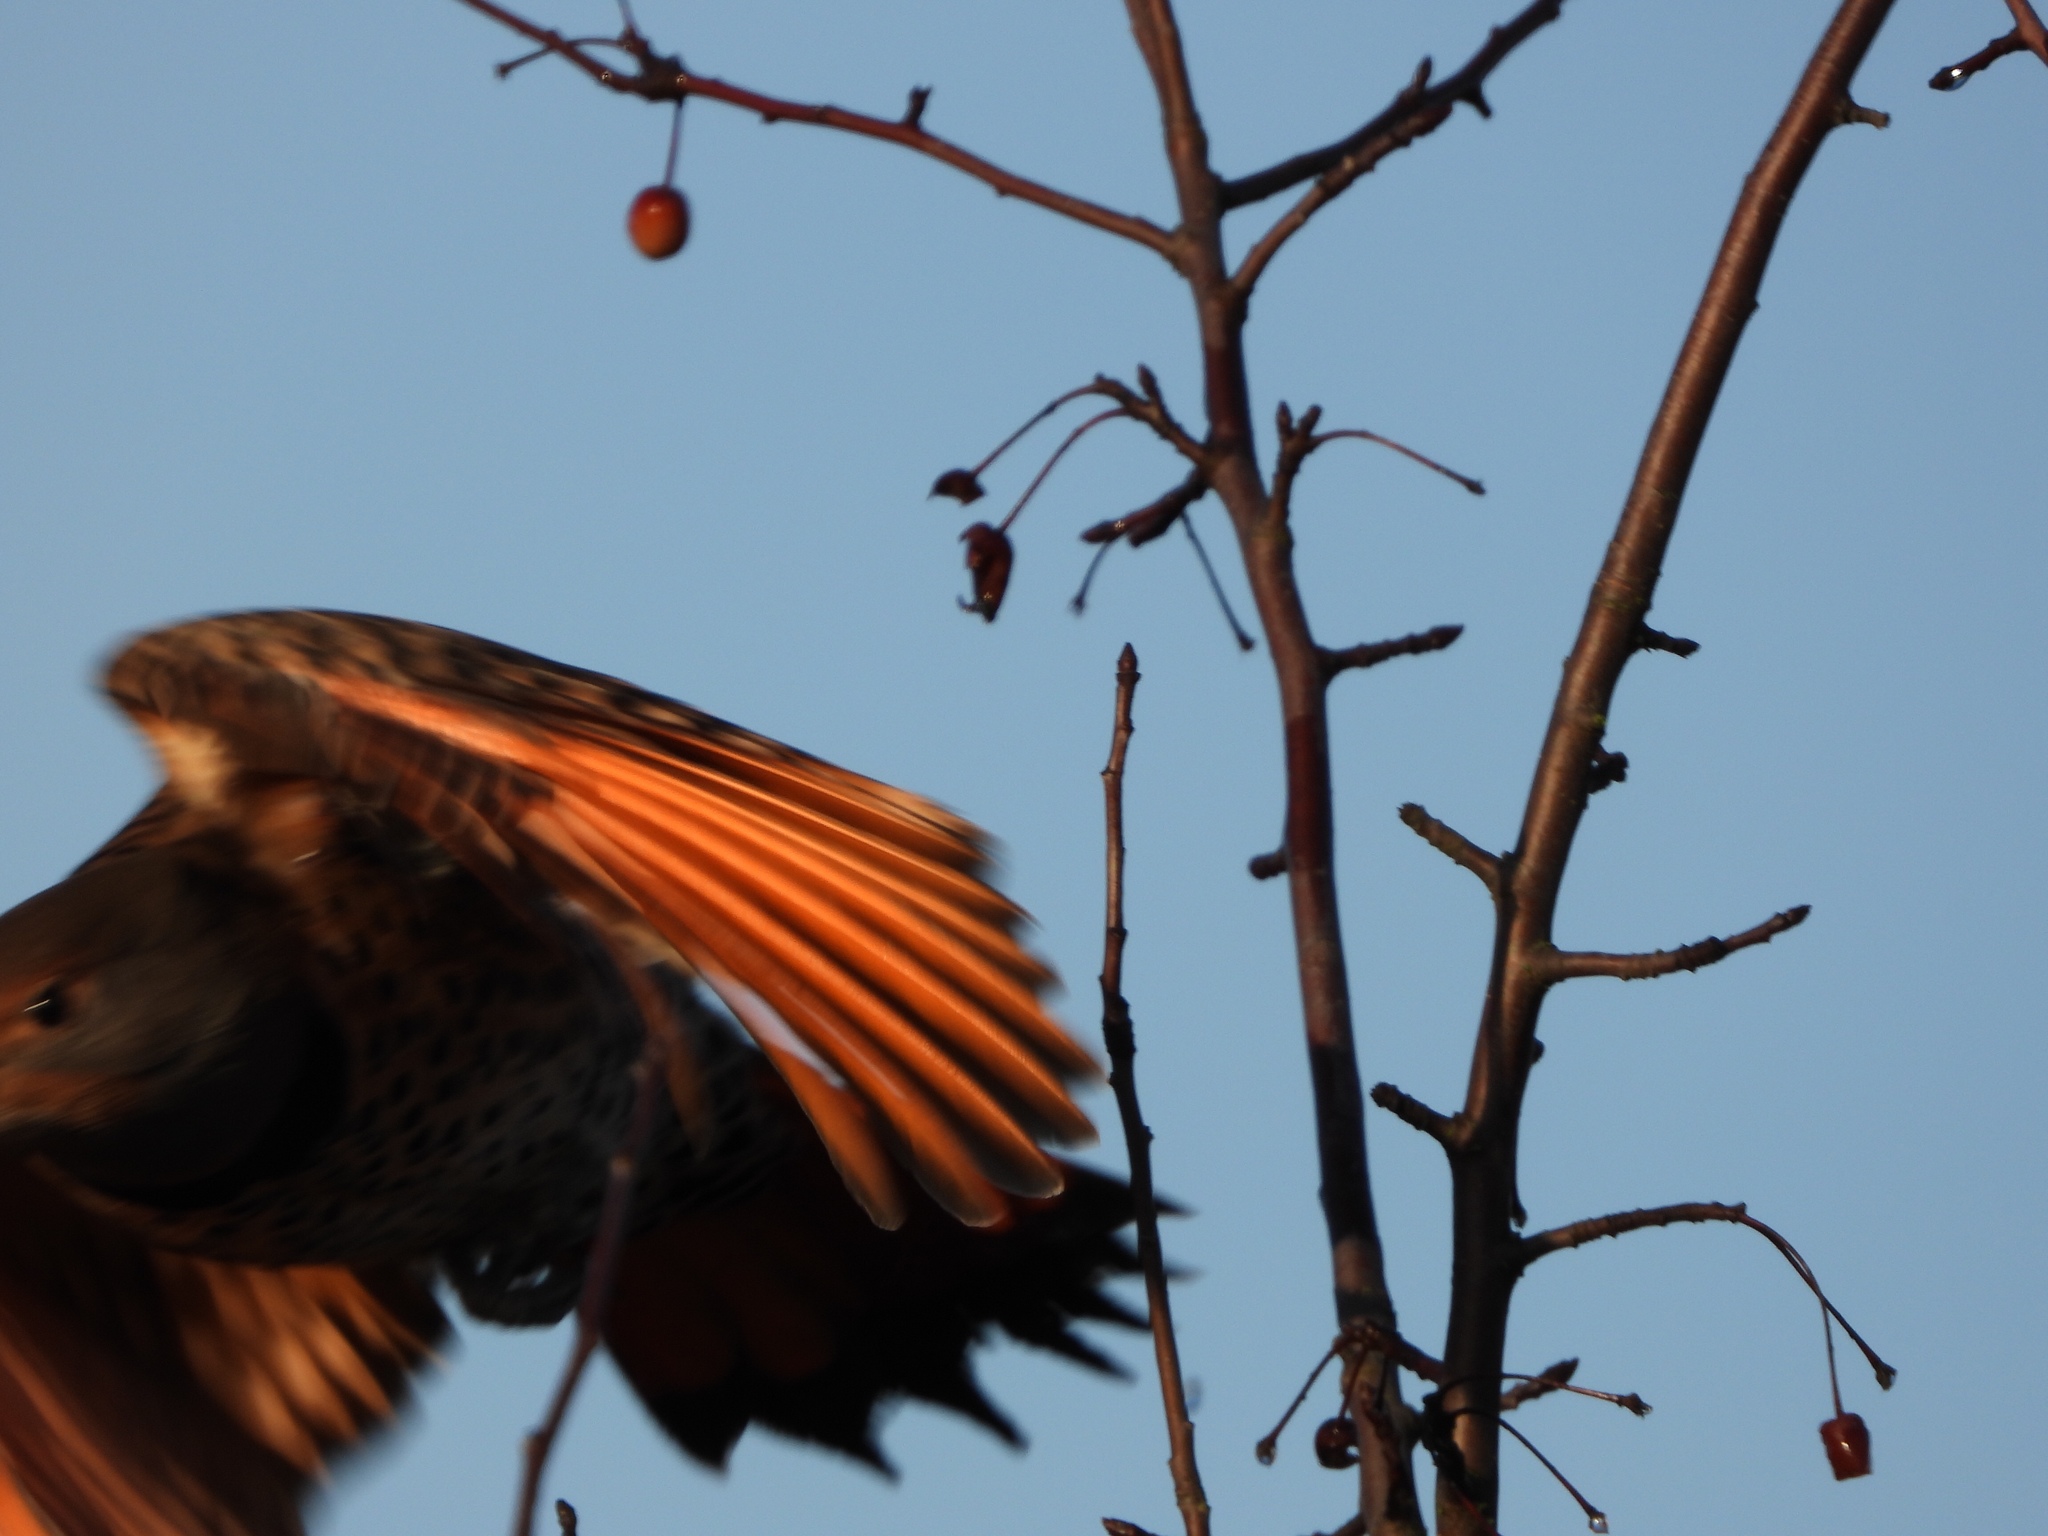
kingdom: Animalia
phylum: Chordata
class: Aves
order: Piciformes
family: Picidae
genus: Colaptes
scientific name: Colaptes auratus
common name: Northern flicker
